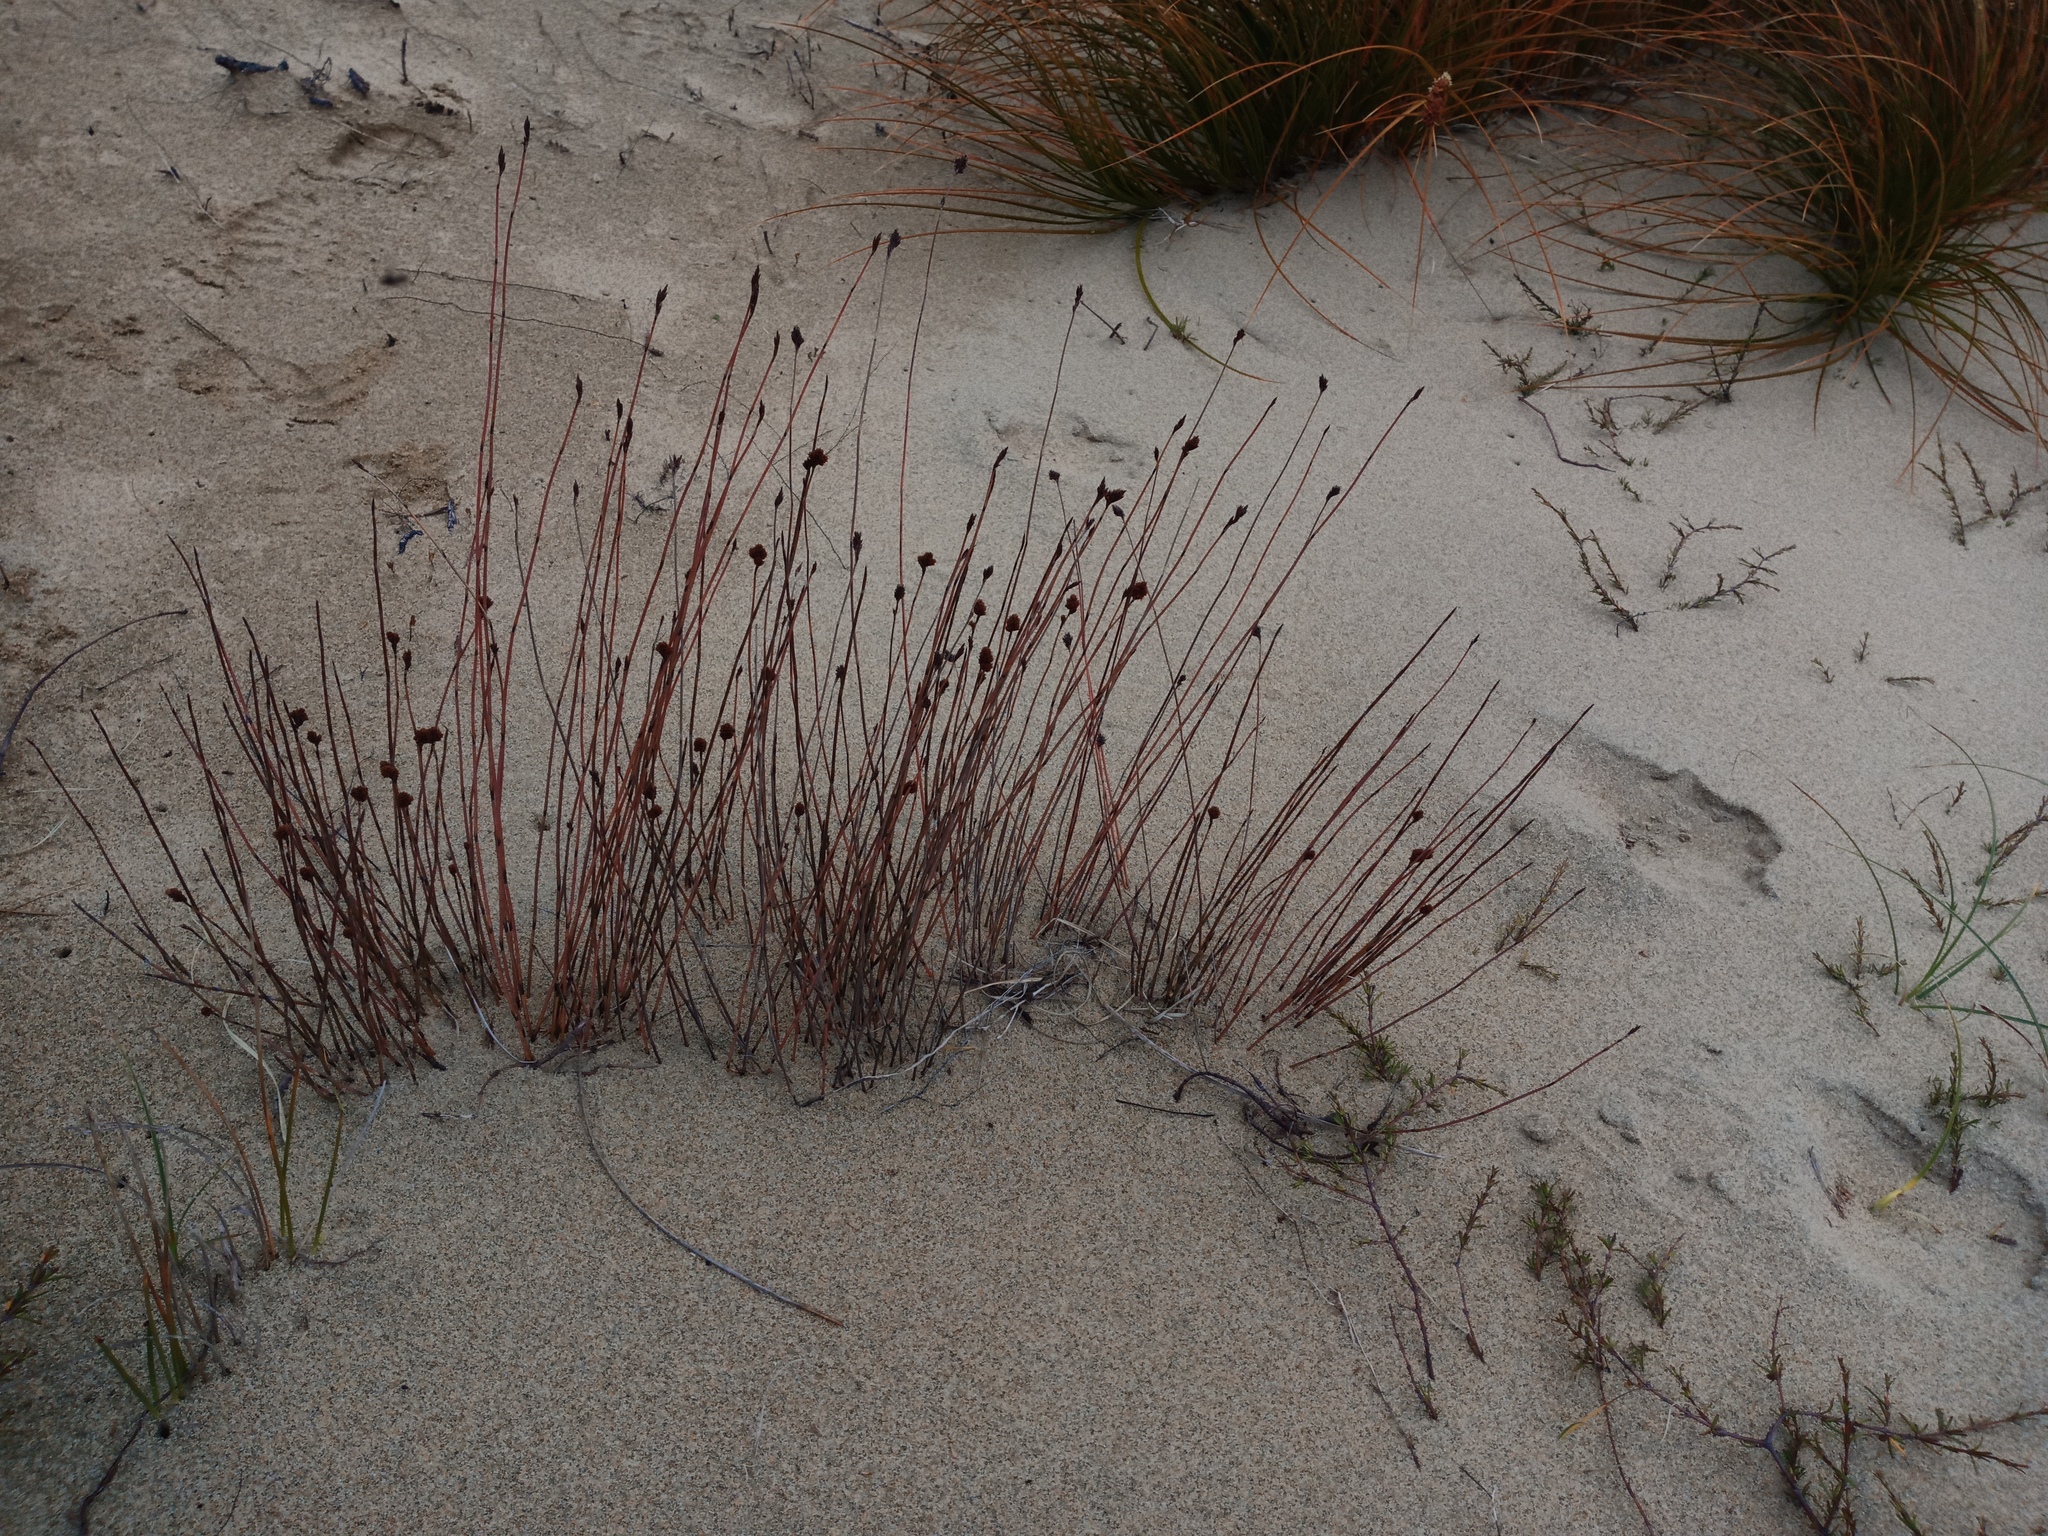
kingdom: Plantae
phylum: Tracheophyta
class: Liliopsida
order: Poales
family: Cyperaceae
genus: Ficinia
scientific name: Ficinia nodosa
